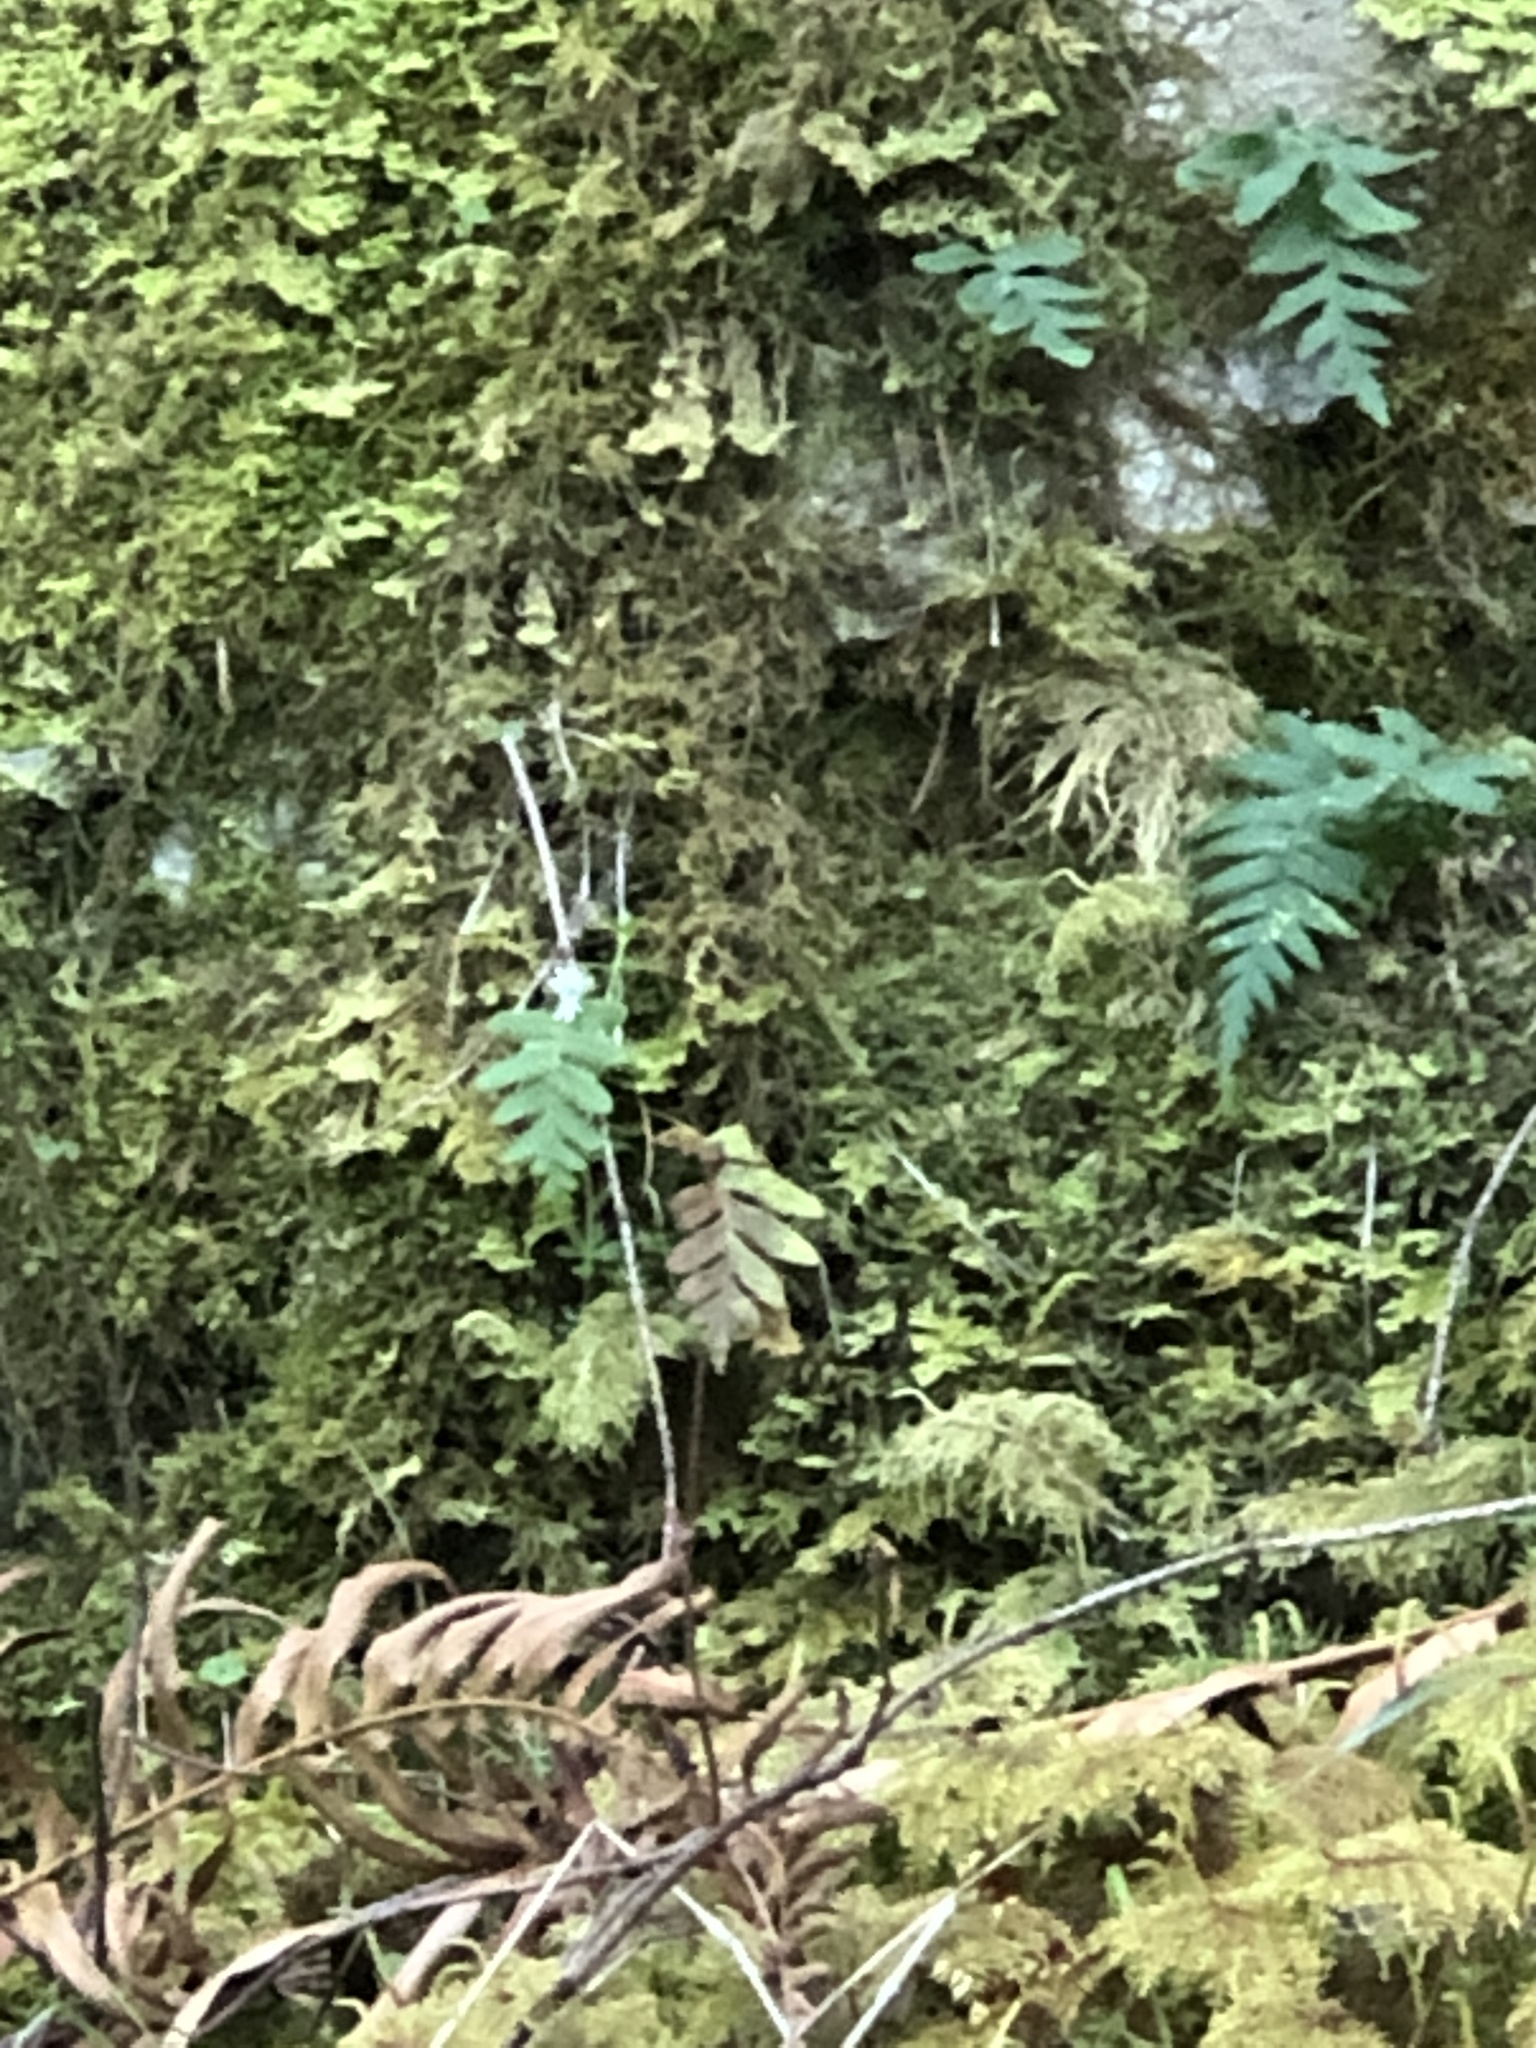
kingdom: Plantae
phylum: Tracheophyta
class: Polypodiopsida
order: Polypodiales
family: Polypodiaceae
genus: Polypodium
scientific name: Polypodium glycyrrhiza
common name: Licorice fern
